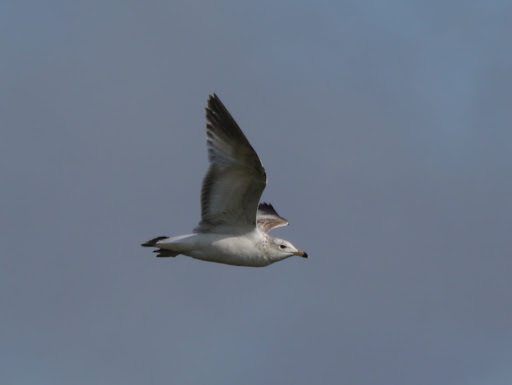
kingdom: Animalia
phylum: Chordata
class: Aves
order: Charadriiformes
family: Laridae
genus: Larus
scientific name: Larus delawarensis
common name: Ring-billed gull
